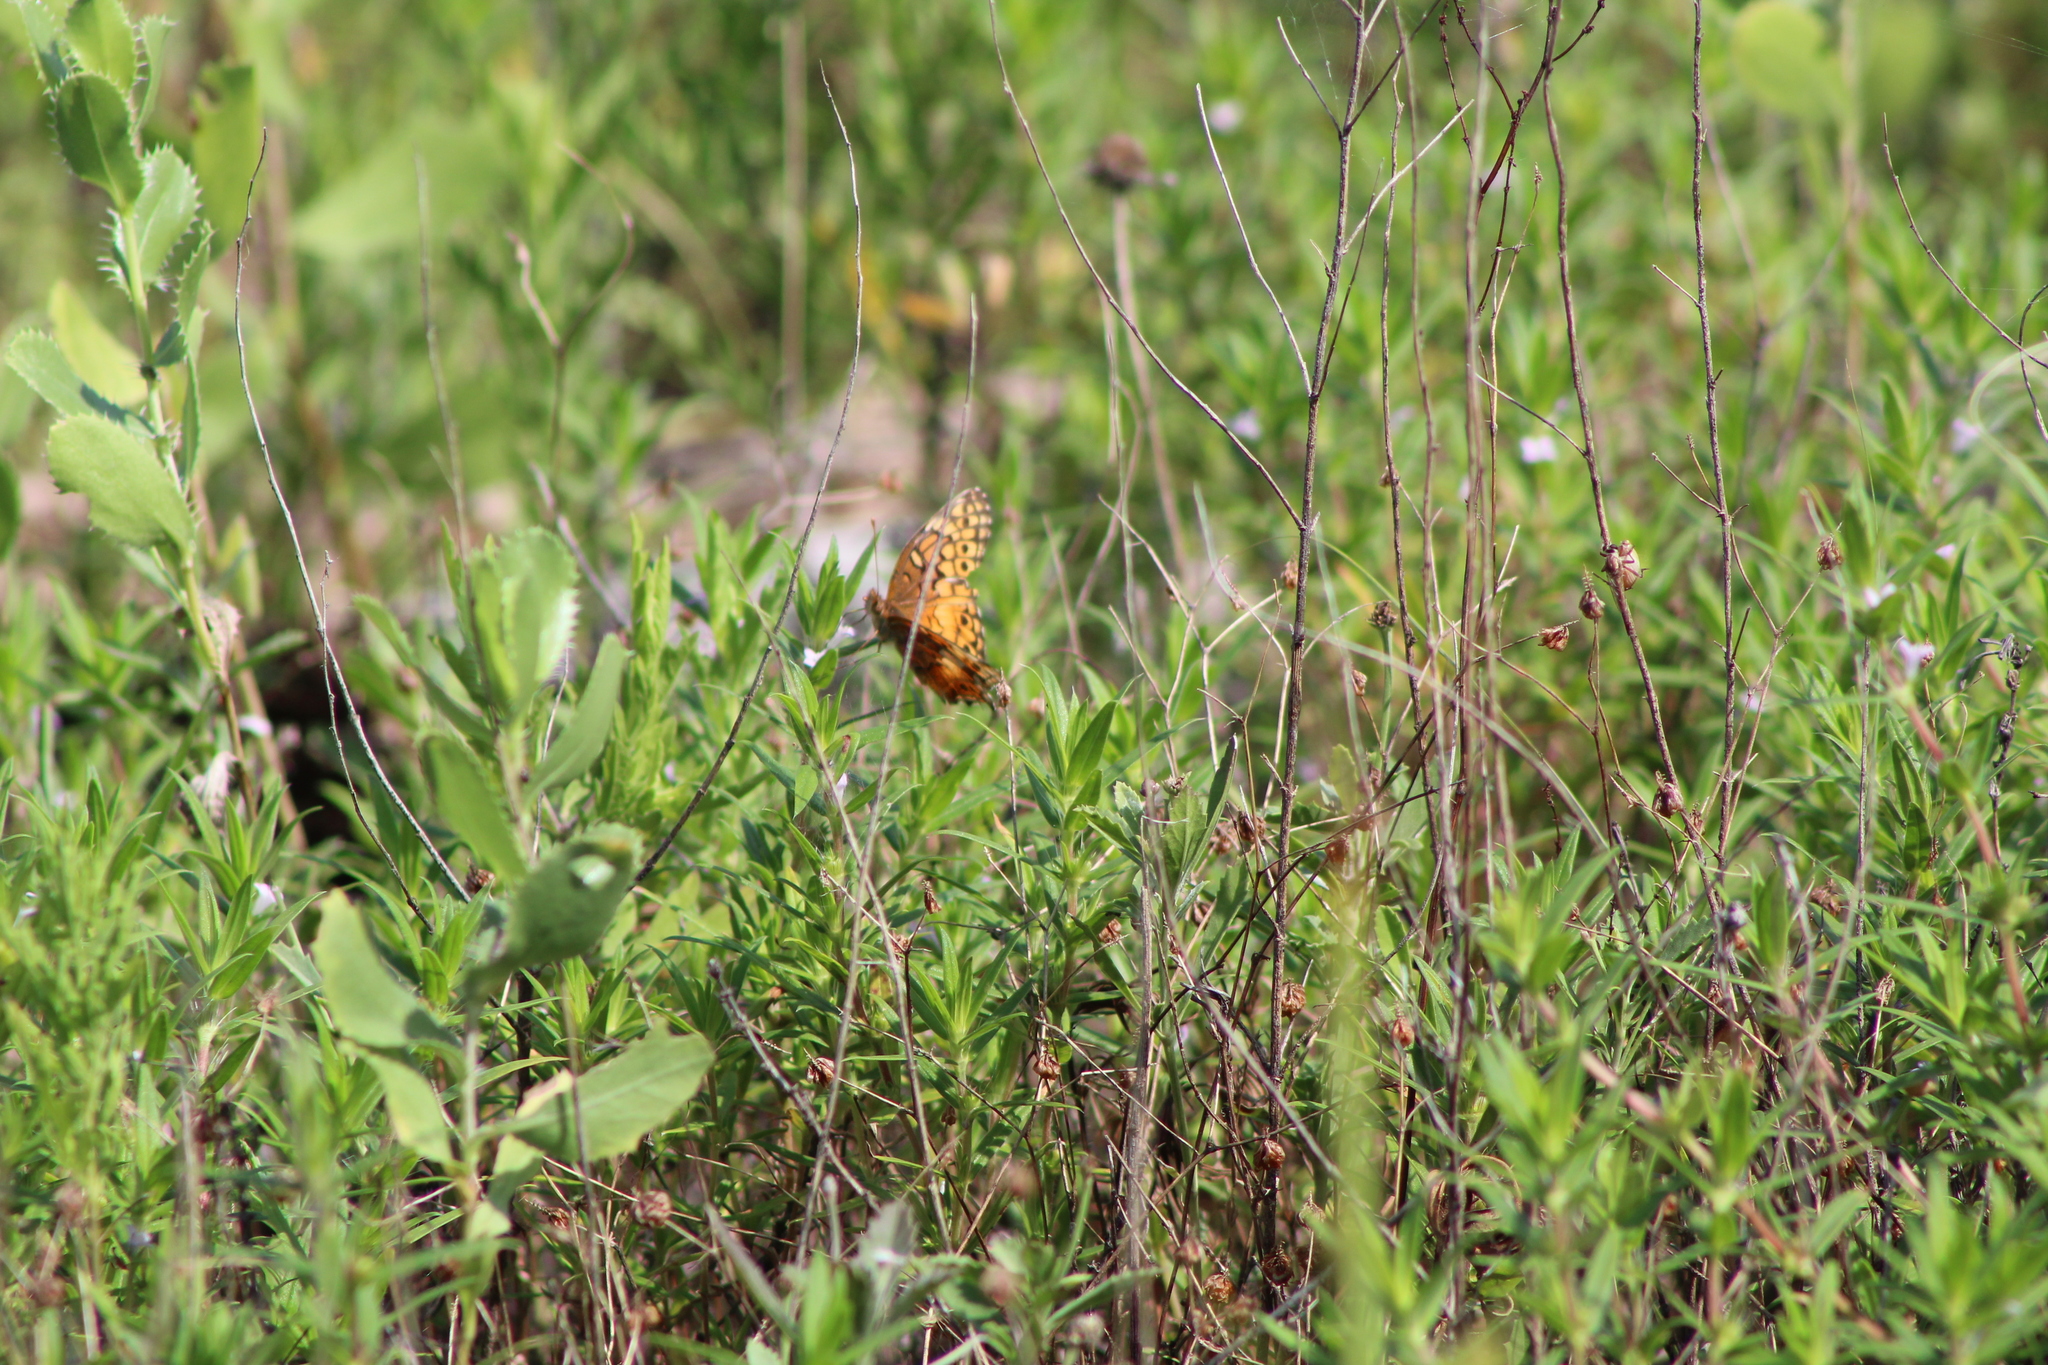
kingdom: Animalia
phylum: Arthropoda
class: Insecta
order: Lepidoptera
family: Nymphalidae
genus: Euptoieta
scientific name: Euptoieta claudia
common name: Variegated fritillary
